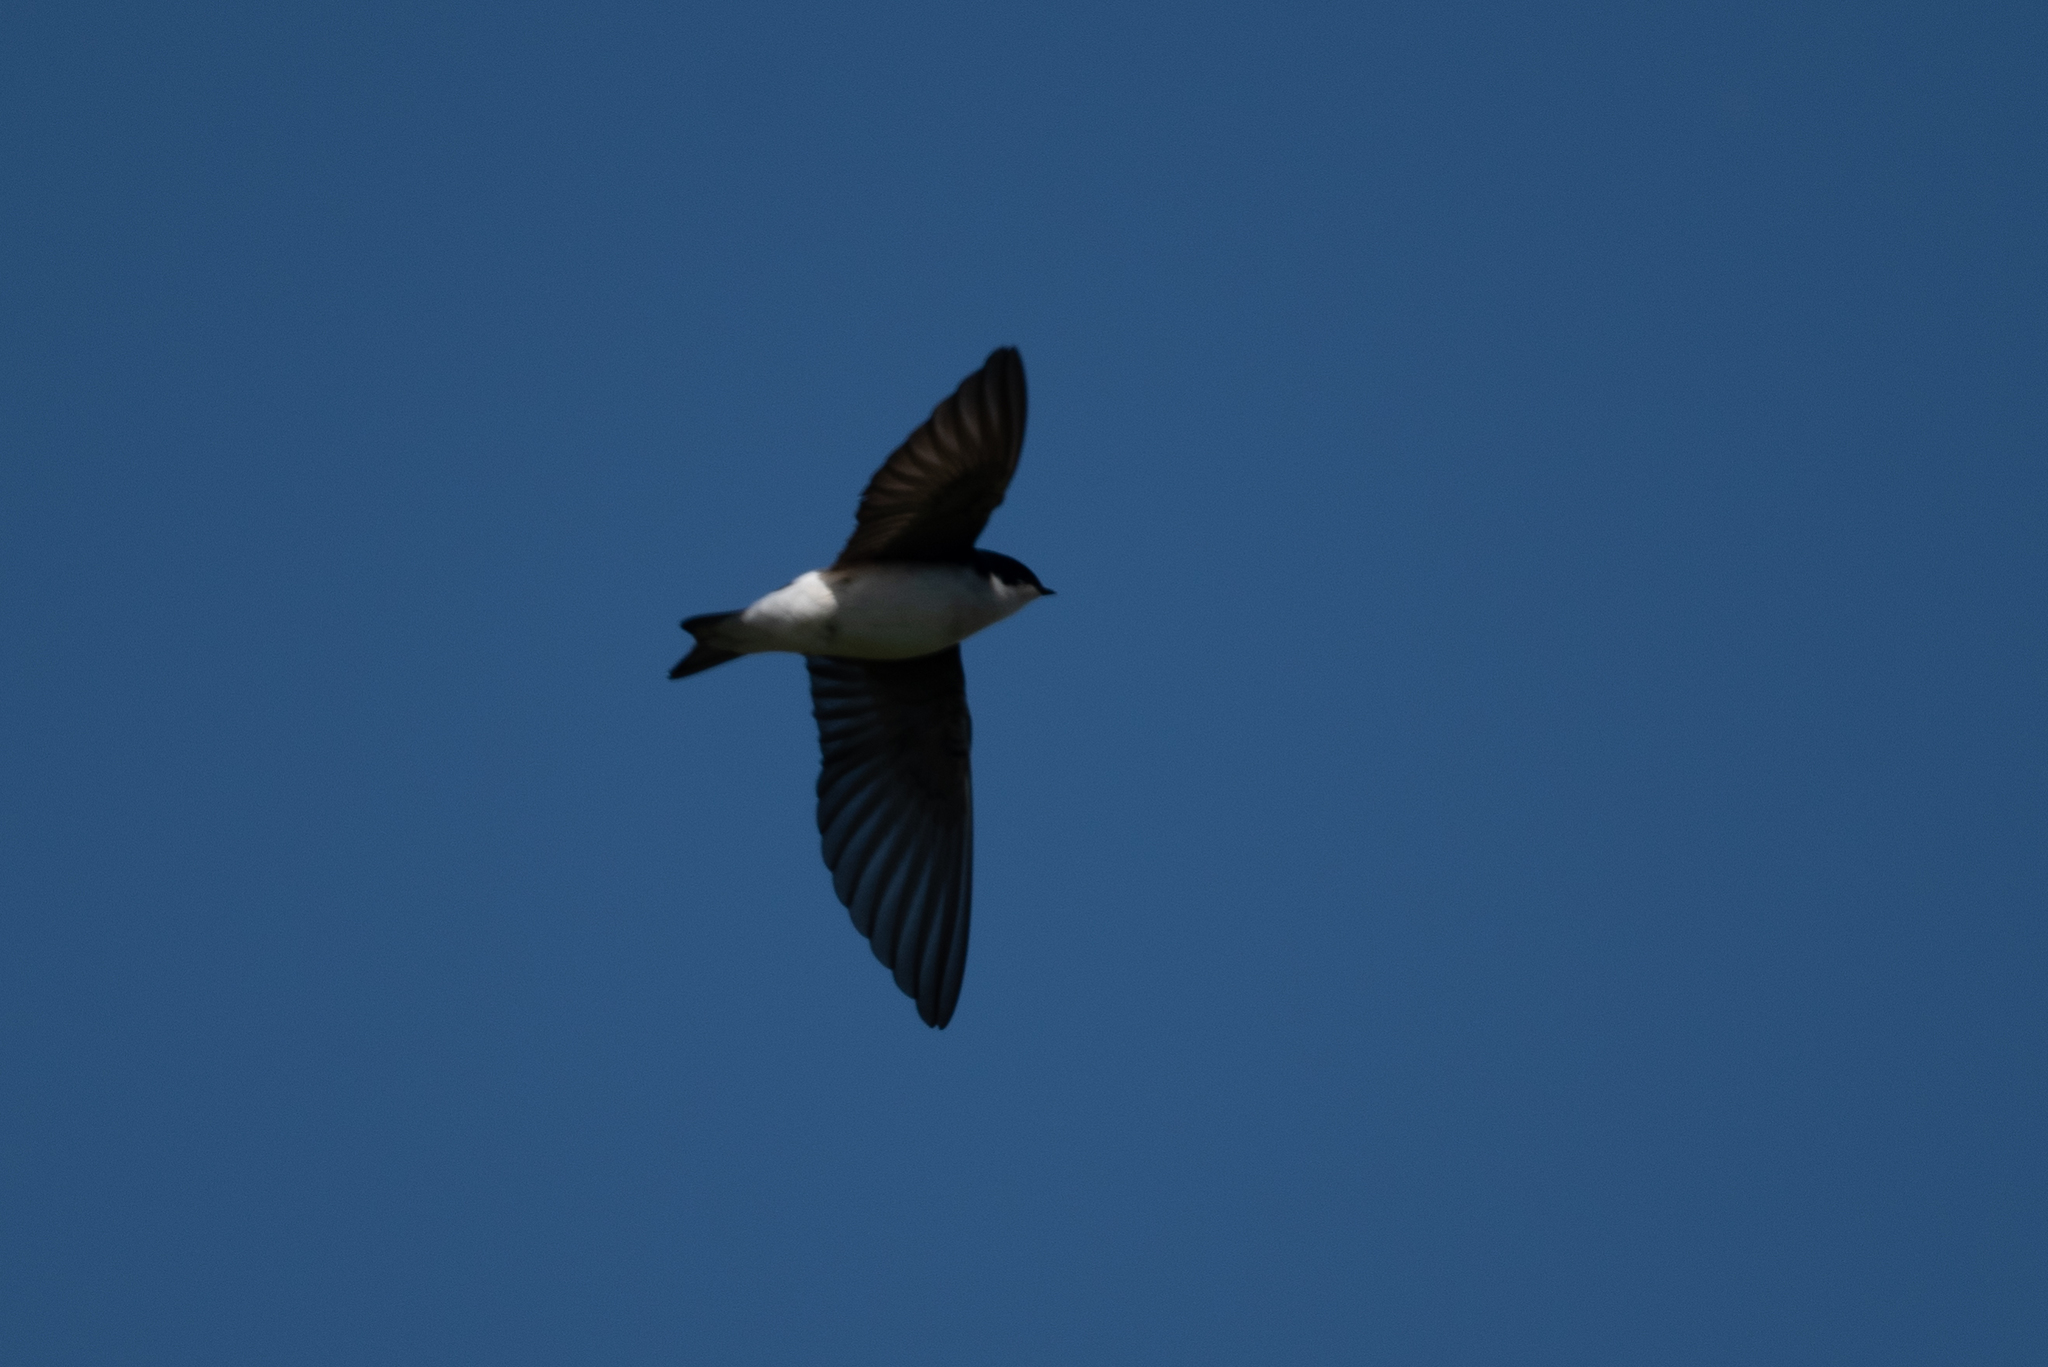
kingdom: Animalia
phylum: Chordata
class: Aves
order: Passeriformes
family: Hirundinidae
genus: Tachycineta
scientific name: Tachycineta bicolor
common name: Tree swallow
